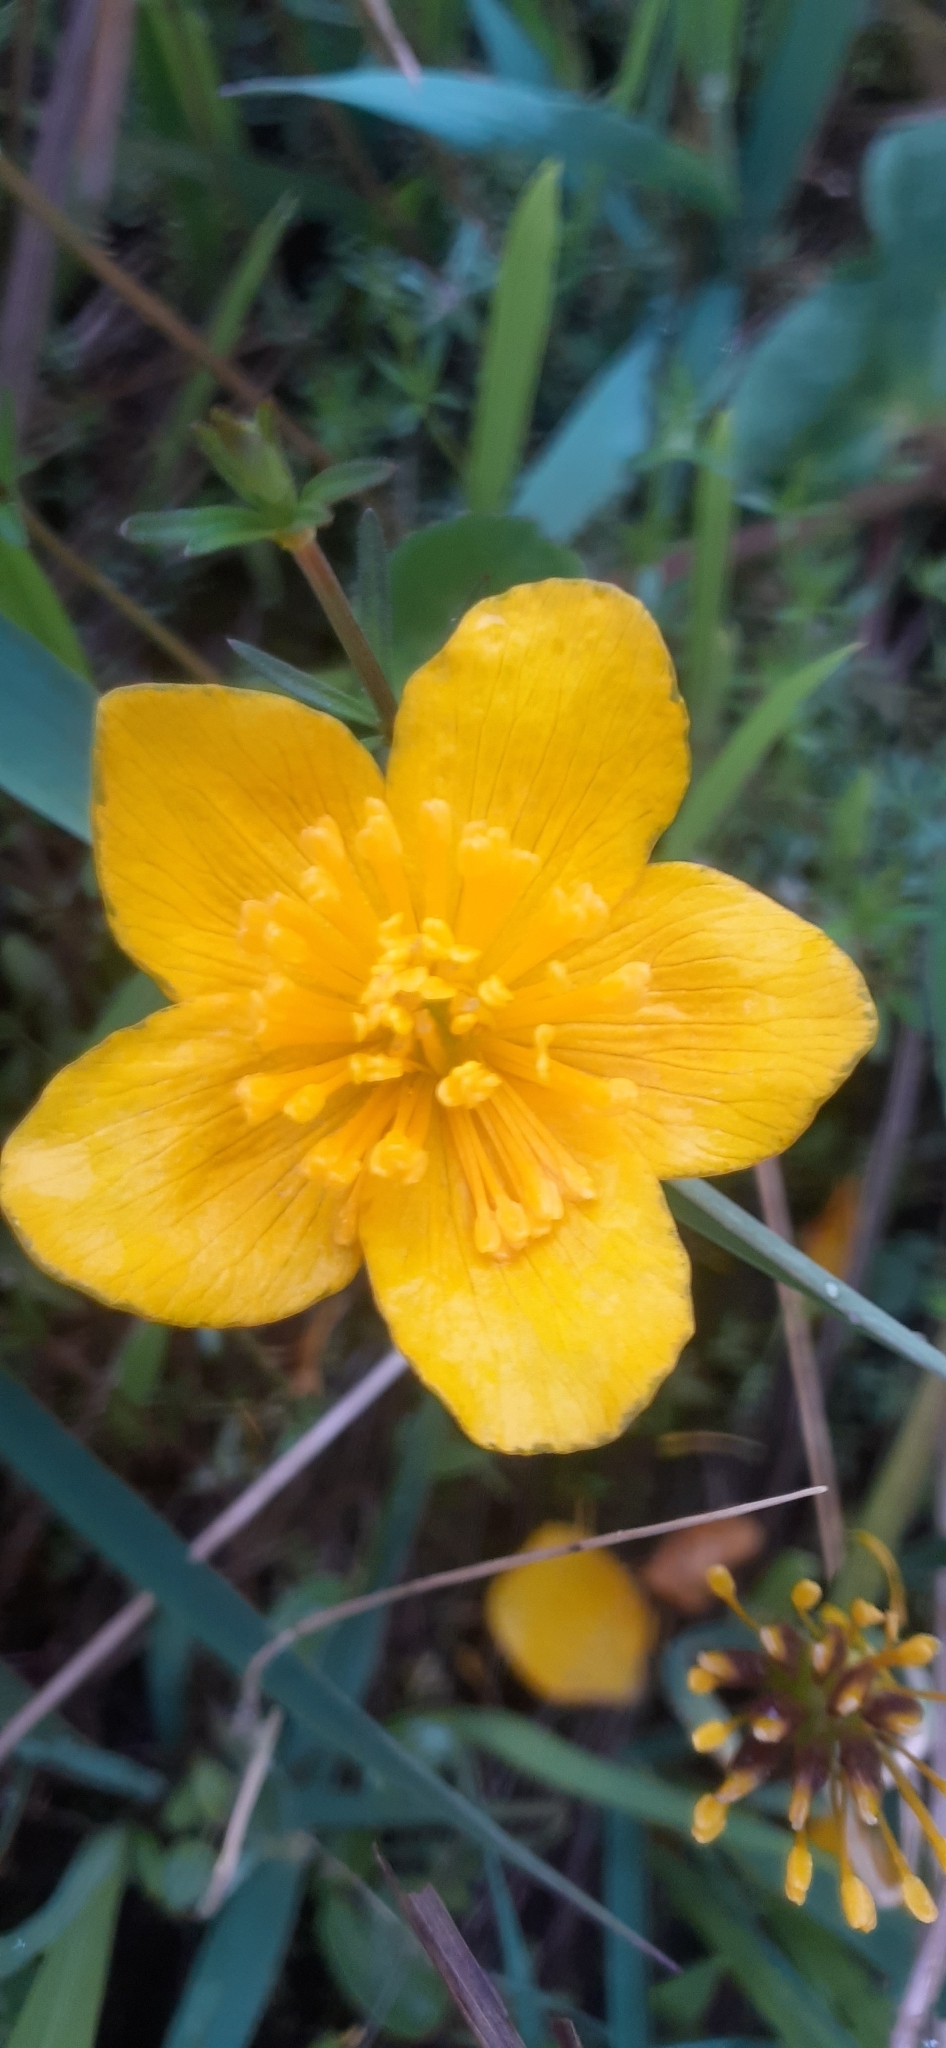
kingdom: Plantae
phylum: Tracheophyta
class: Magnoliopsida
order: Ranunculales
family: Ranunculaceae
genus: Caltha
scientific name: Caltha palustris
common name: Marsh marigold
